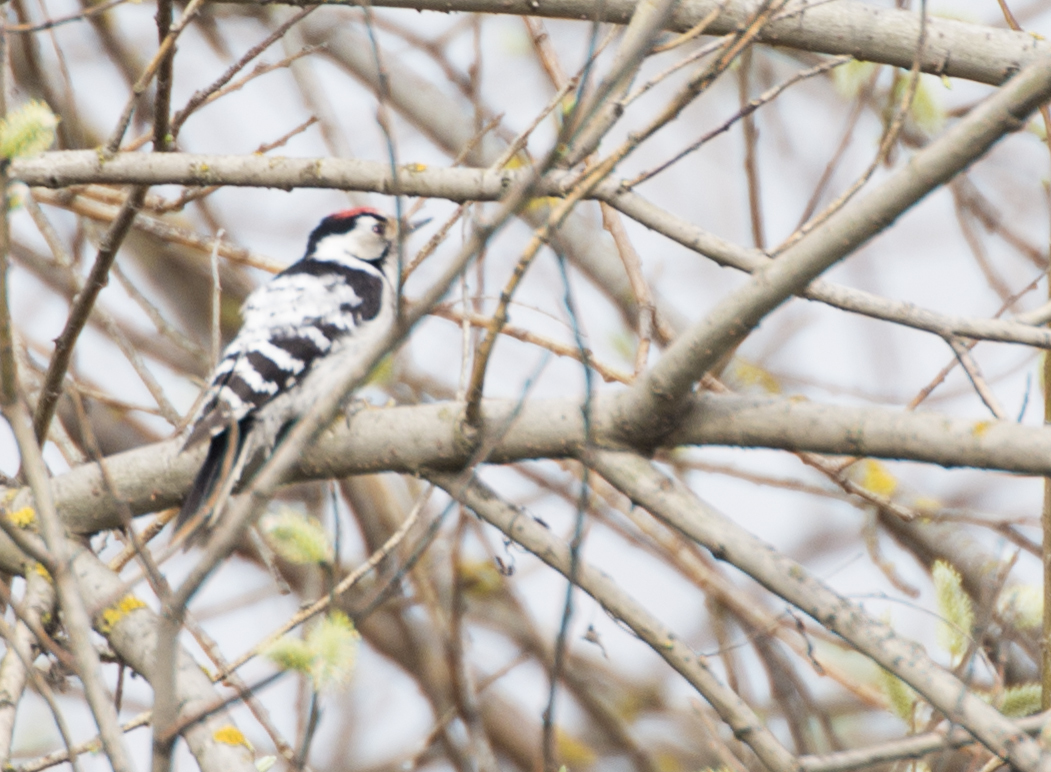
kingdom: Animalia
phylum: Chordata
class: Aves
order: Piciformes
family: Picidae
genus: Dryobates
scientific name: Dryobates minor
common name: Lesser spotted woodpecker
